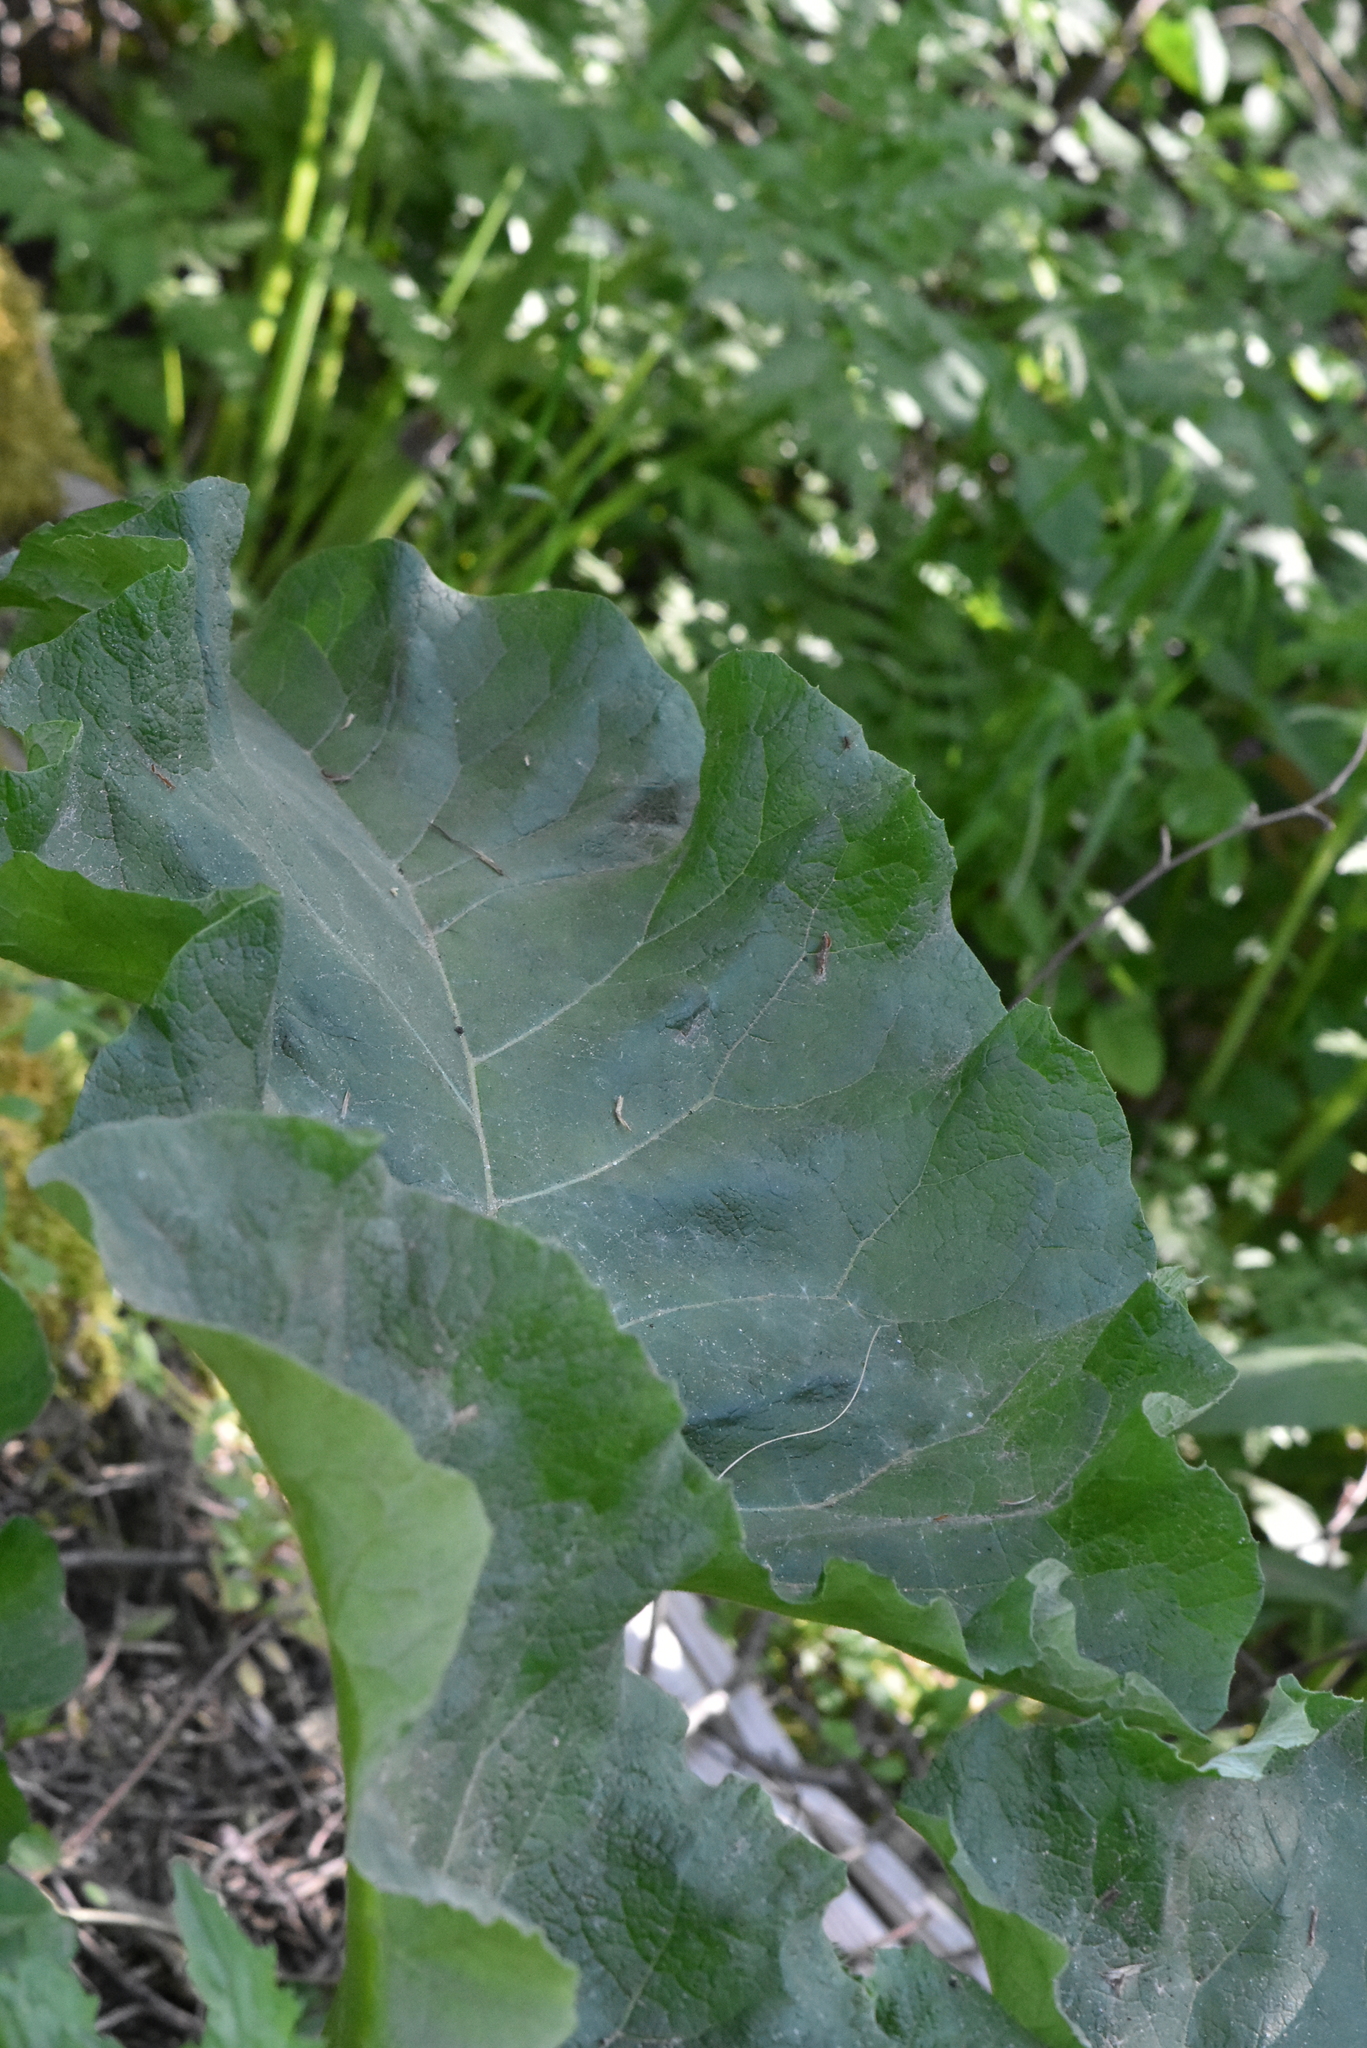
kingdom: Plantae
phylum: Tracheophyta
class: Magnoliopsida
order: Asterales
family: Asteraceae
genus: Arctium
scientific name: Arctium
